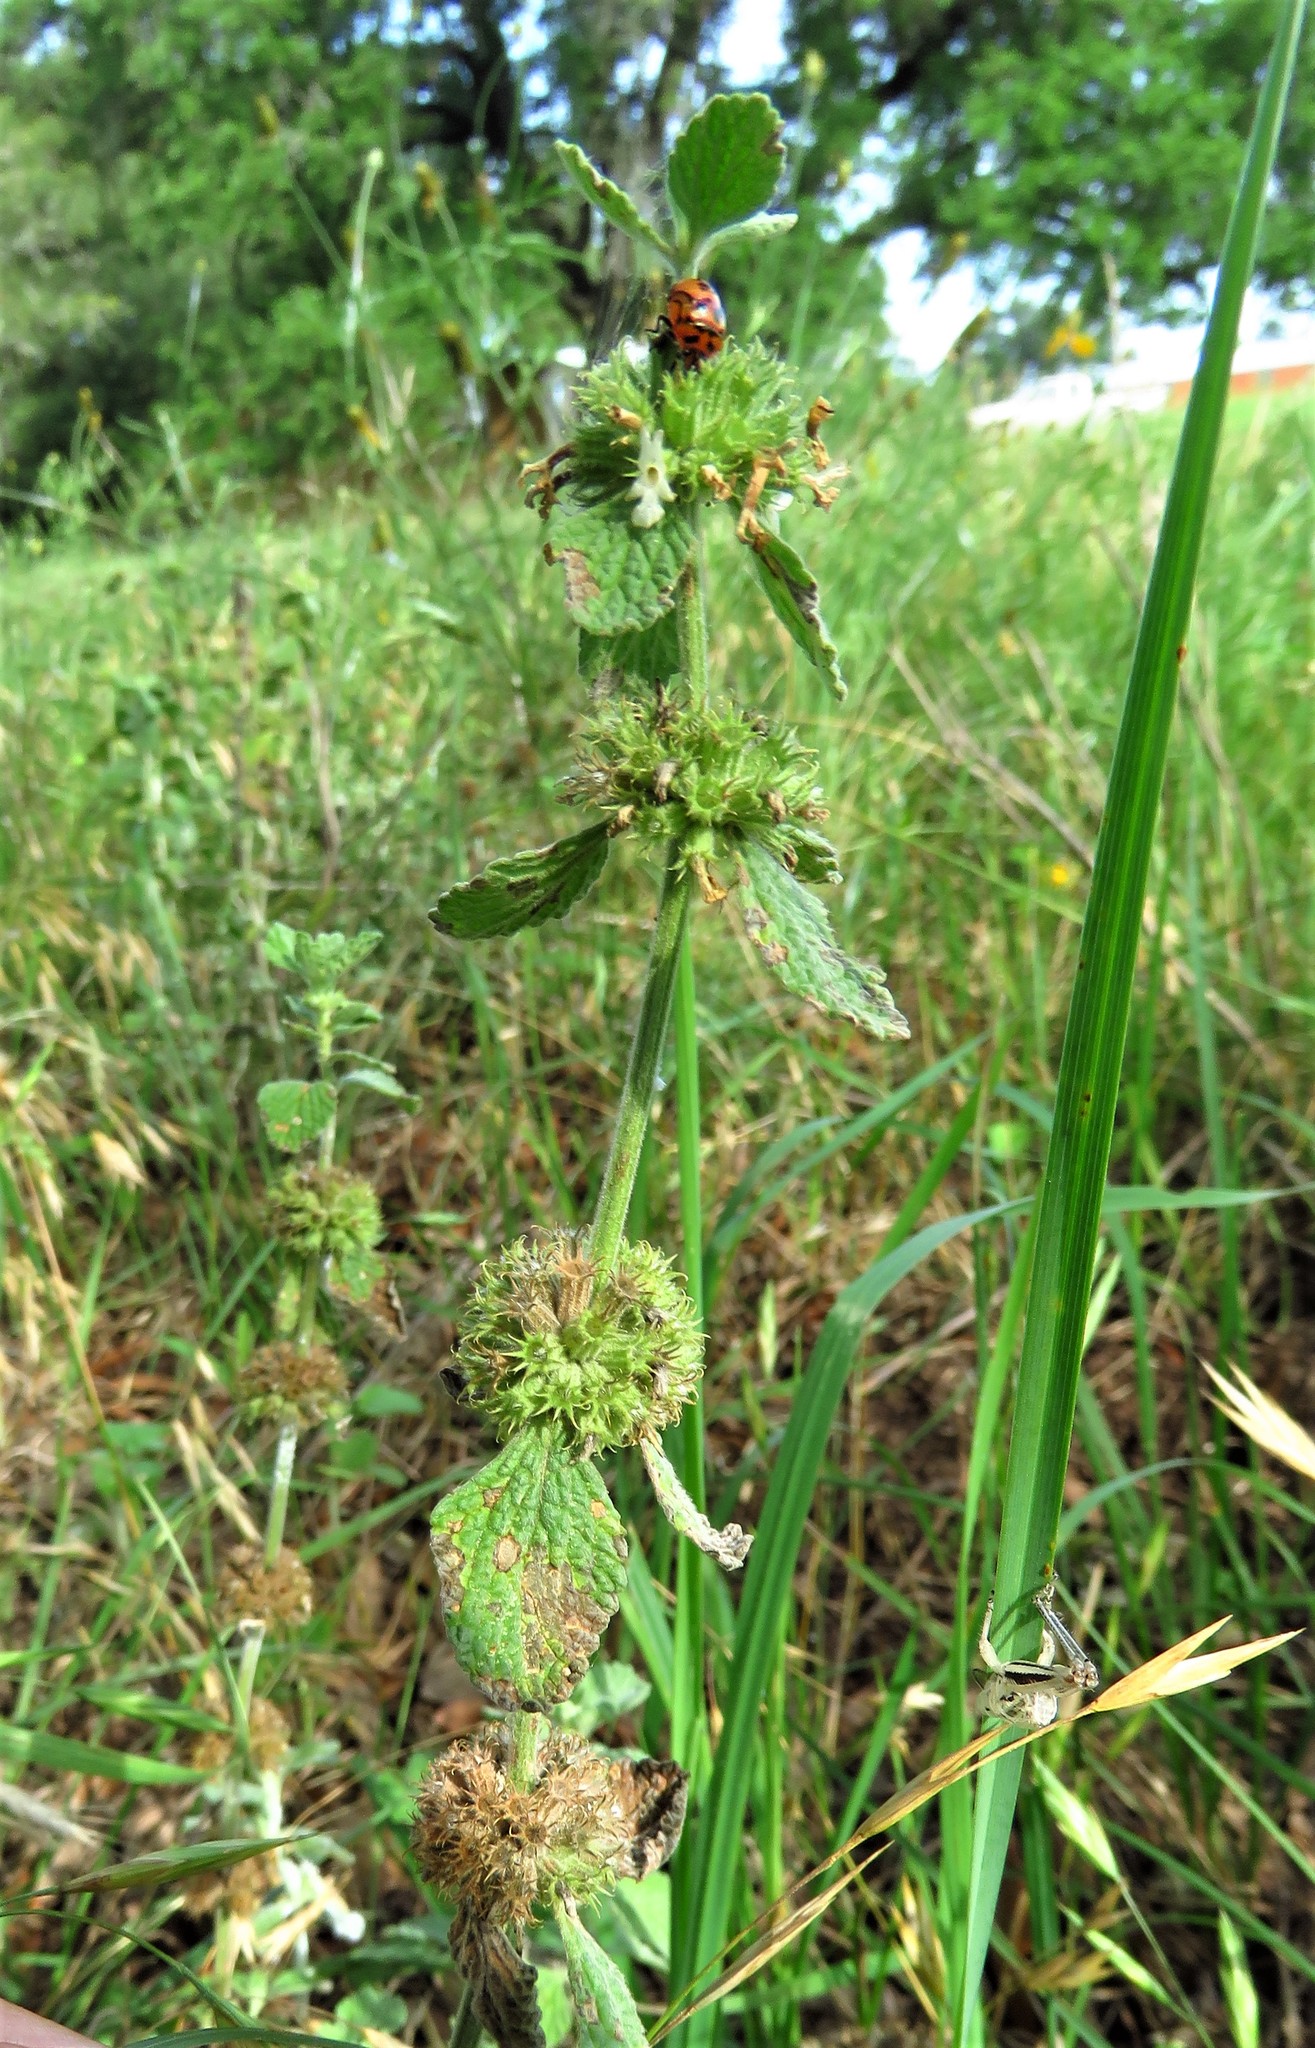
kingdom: Plantae
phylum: Tracheophyta
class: Magnoliopsida
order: Lamiales
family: Lamiaceae
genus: Marrubium
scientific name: Marrubium vulgare
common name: Horehound
